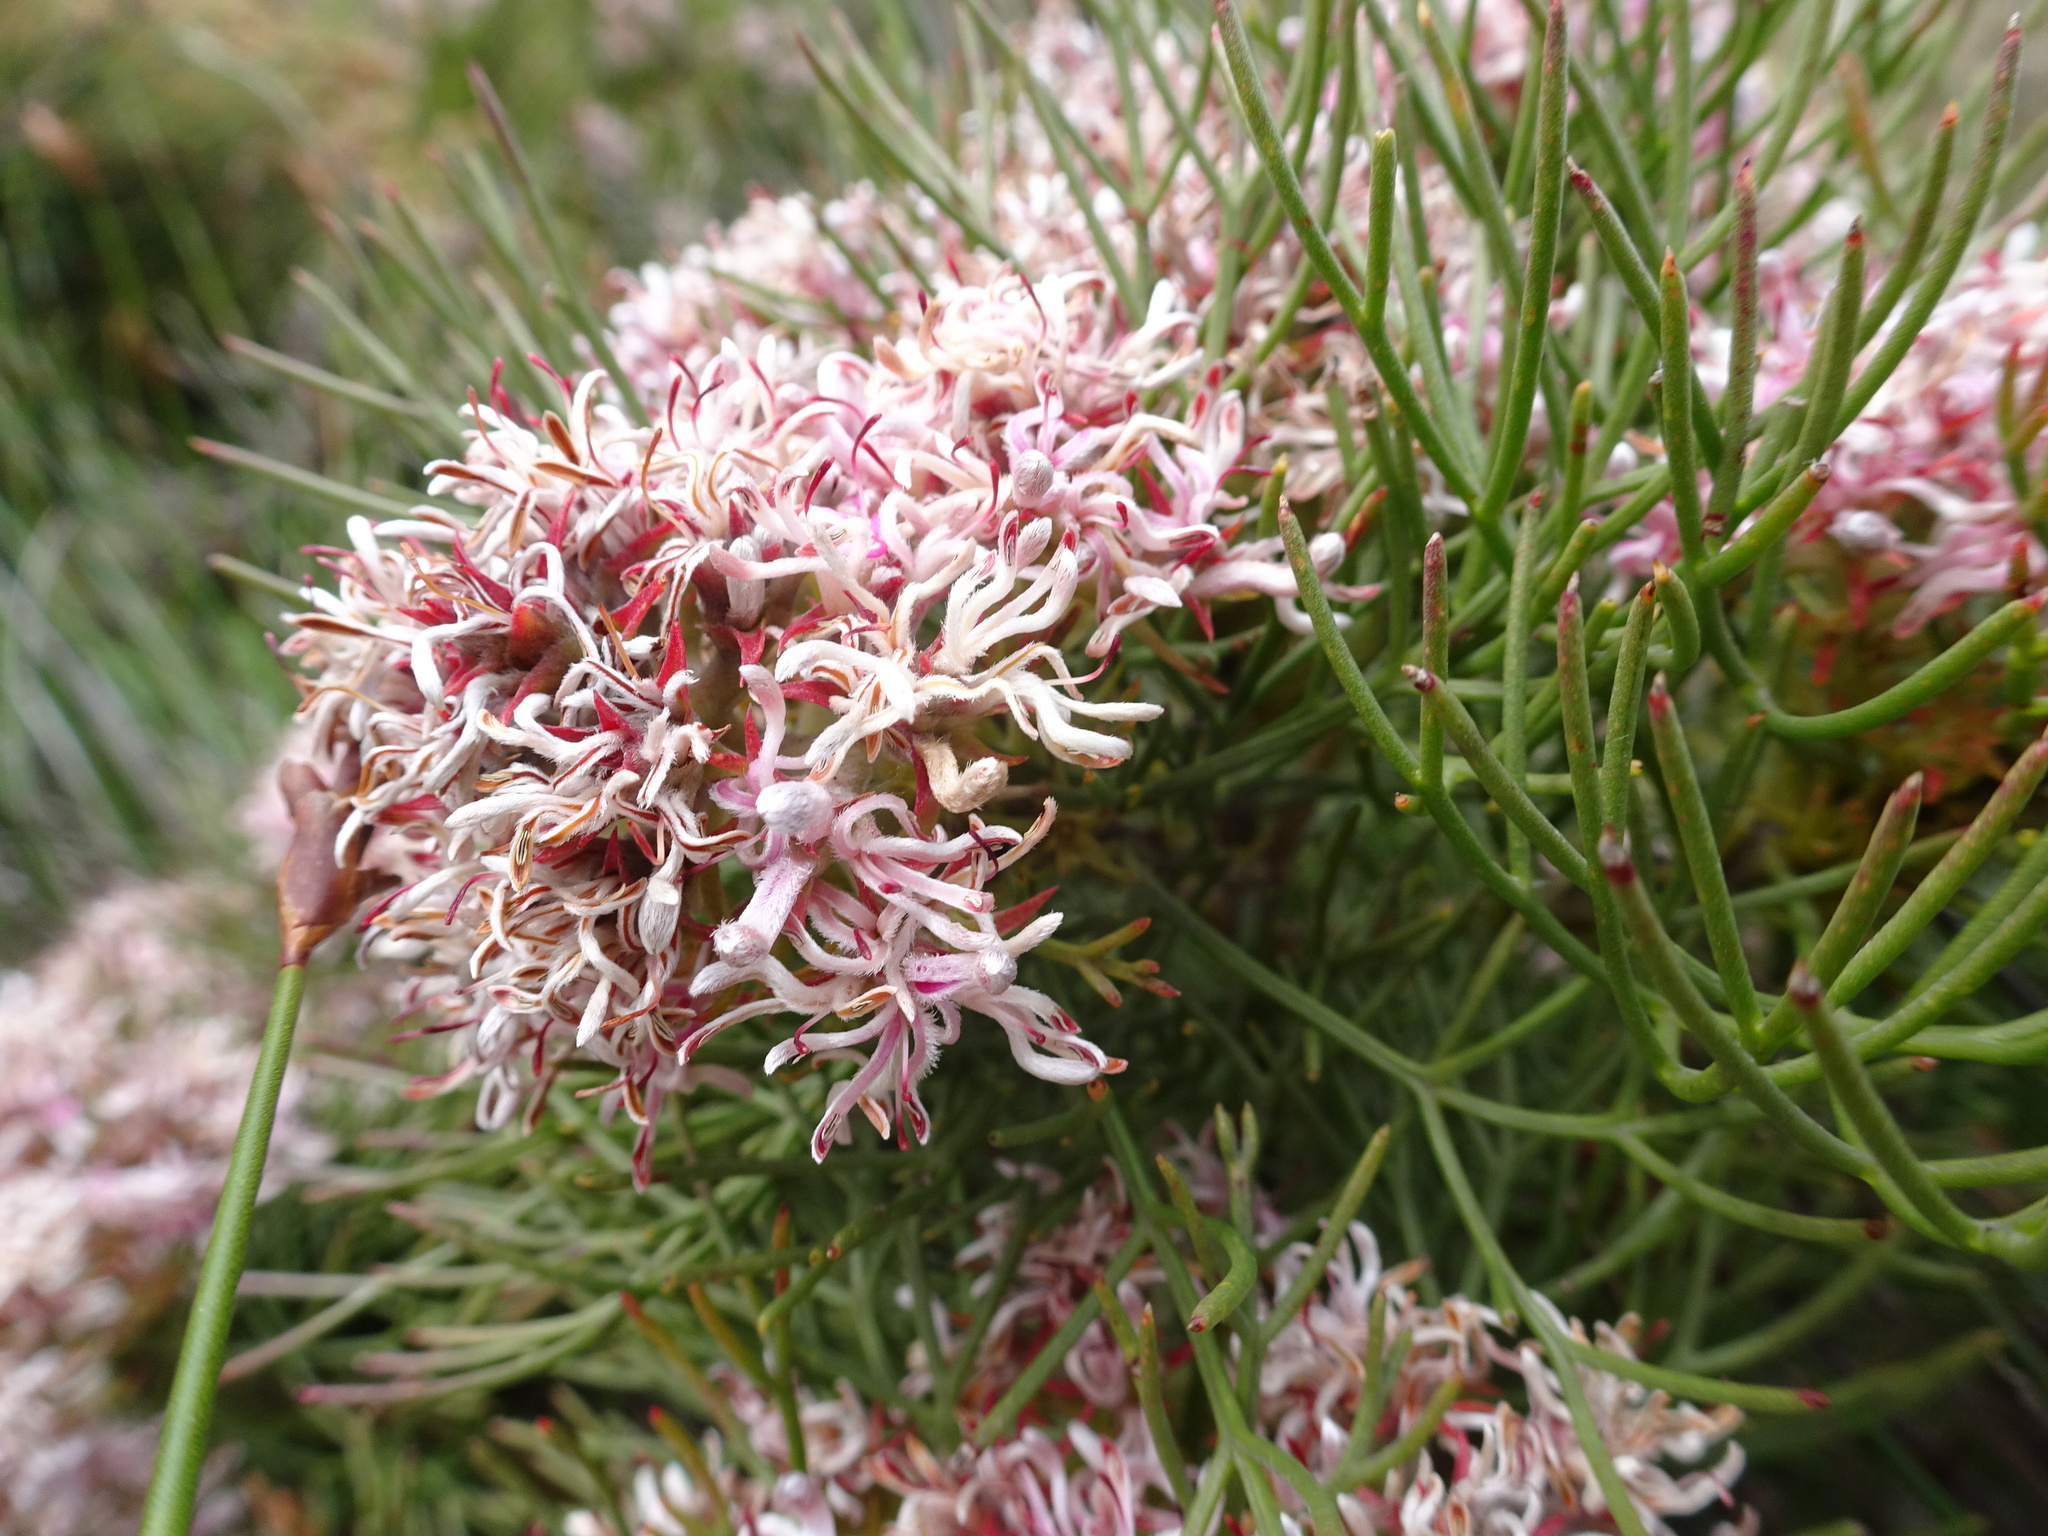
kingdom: Plantae
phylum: Tracheophyta
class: Magnoliopsida
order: Proteales
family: Proteaceae
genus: Serruria
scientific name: Serruria ascendens
